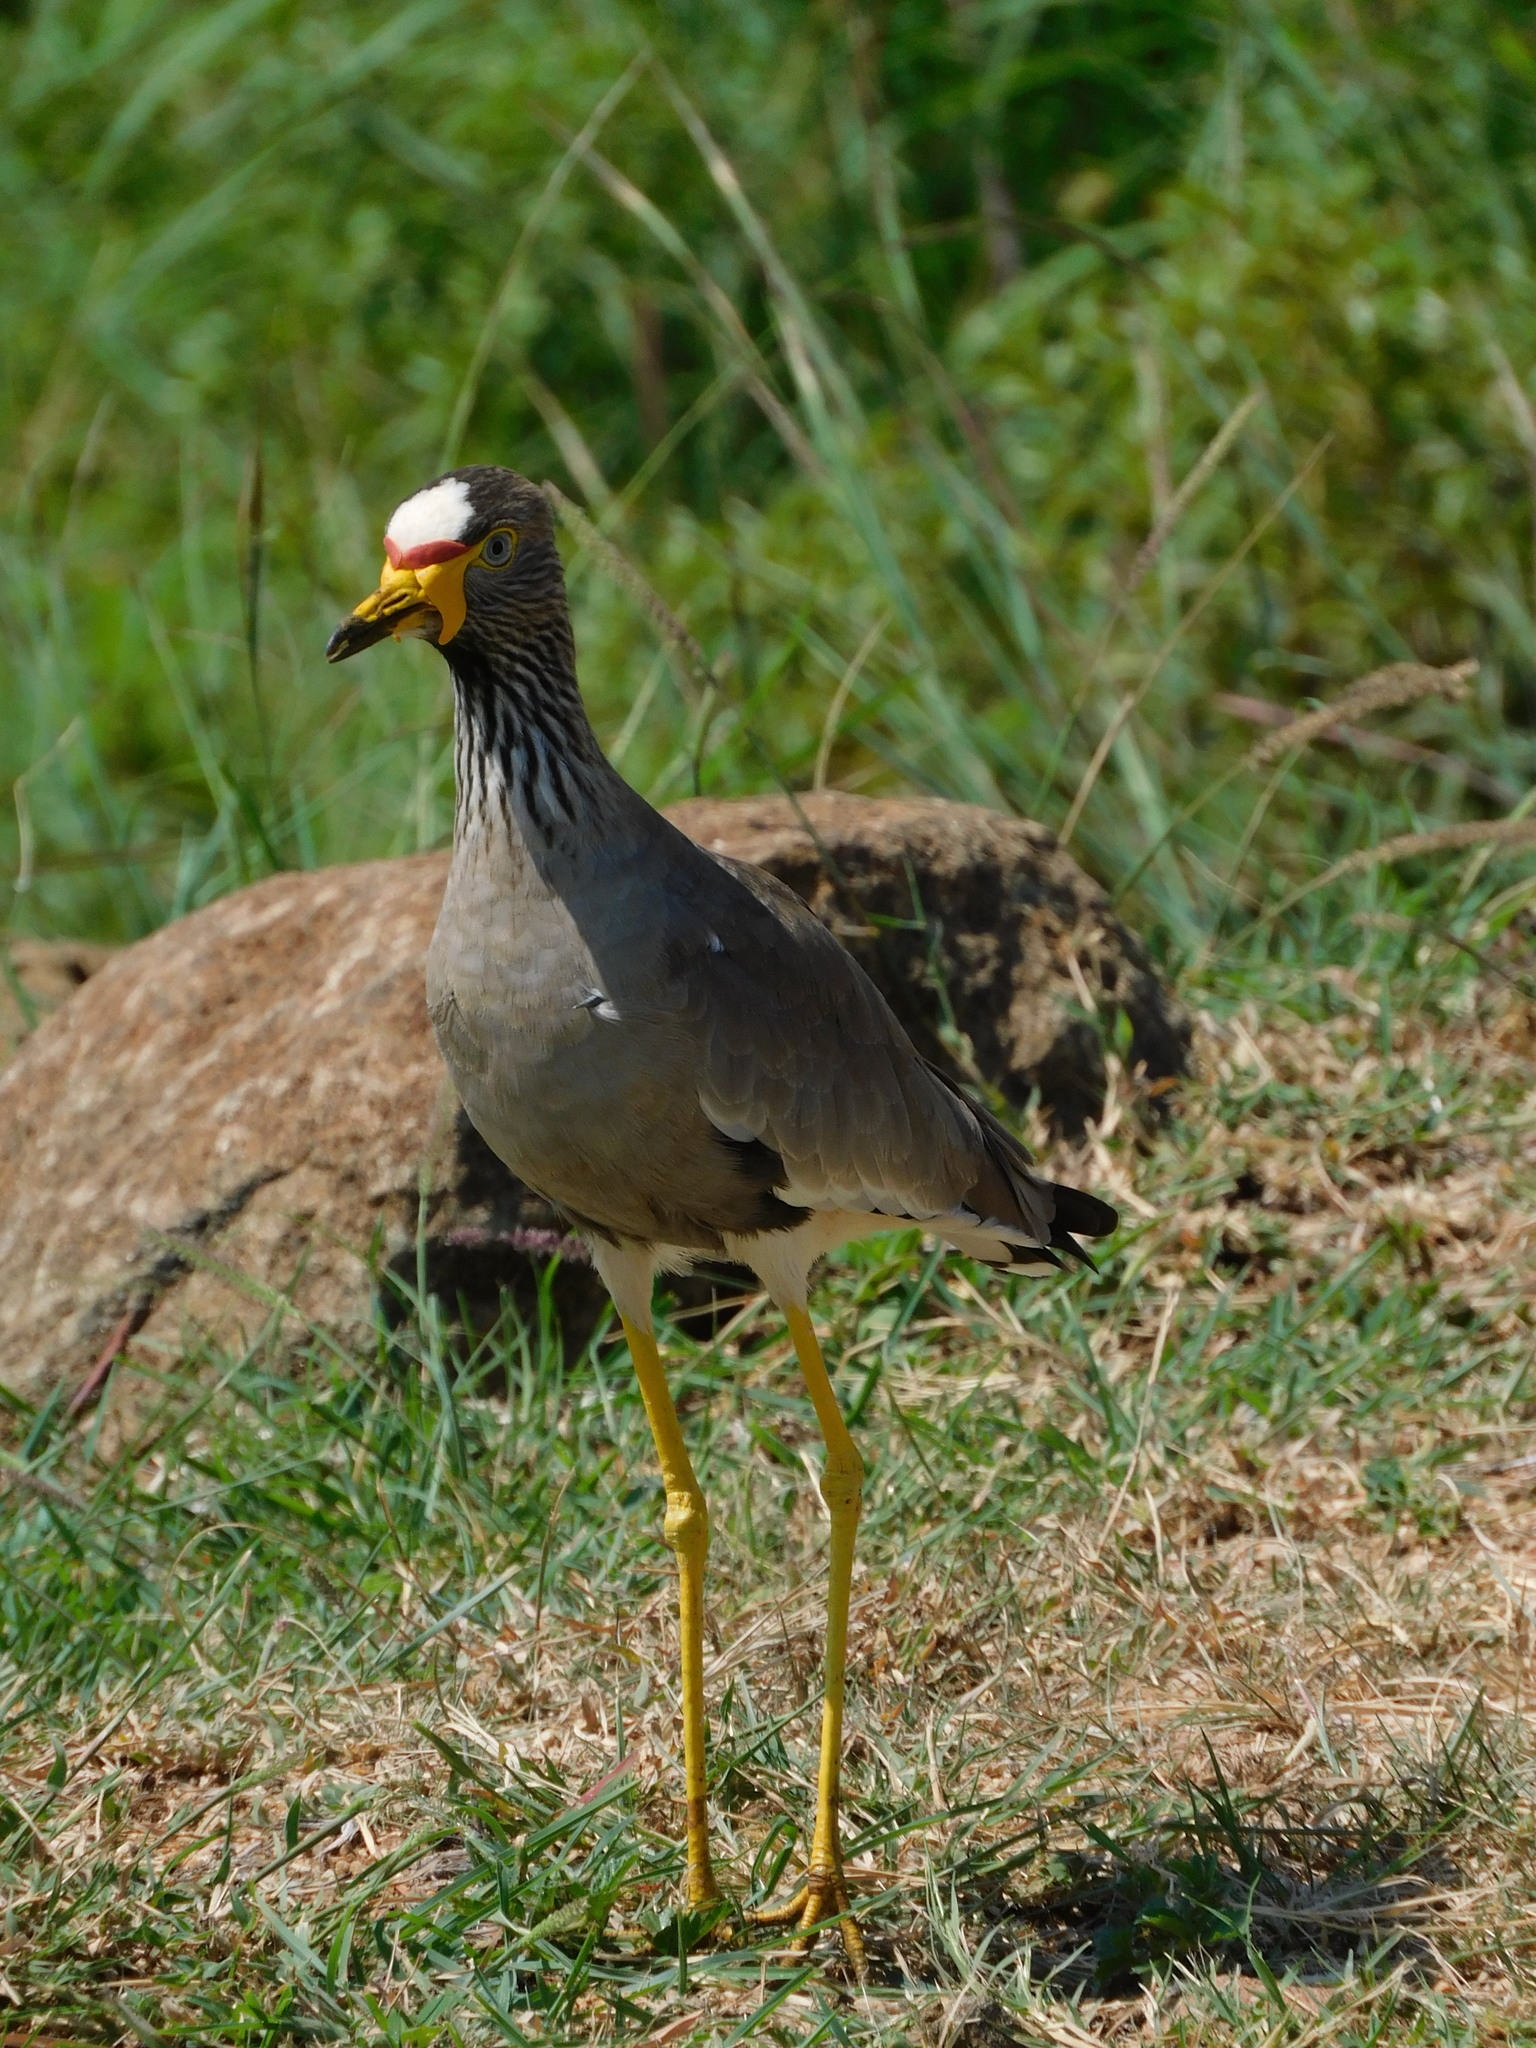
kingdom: Animalia
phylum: Chordata
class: Aves
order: Charadriiformes
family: Charadriidae
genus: Vanellus
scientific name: Vanellus senegallus
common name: African wattled lapwing
